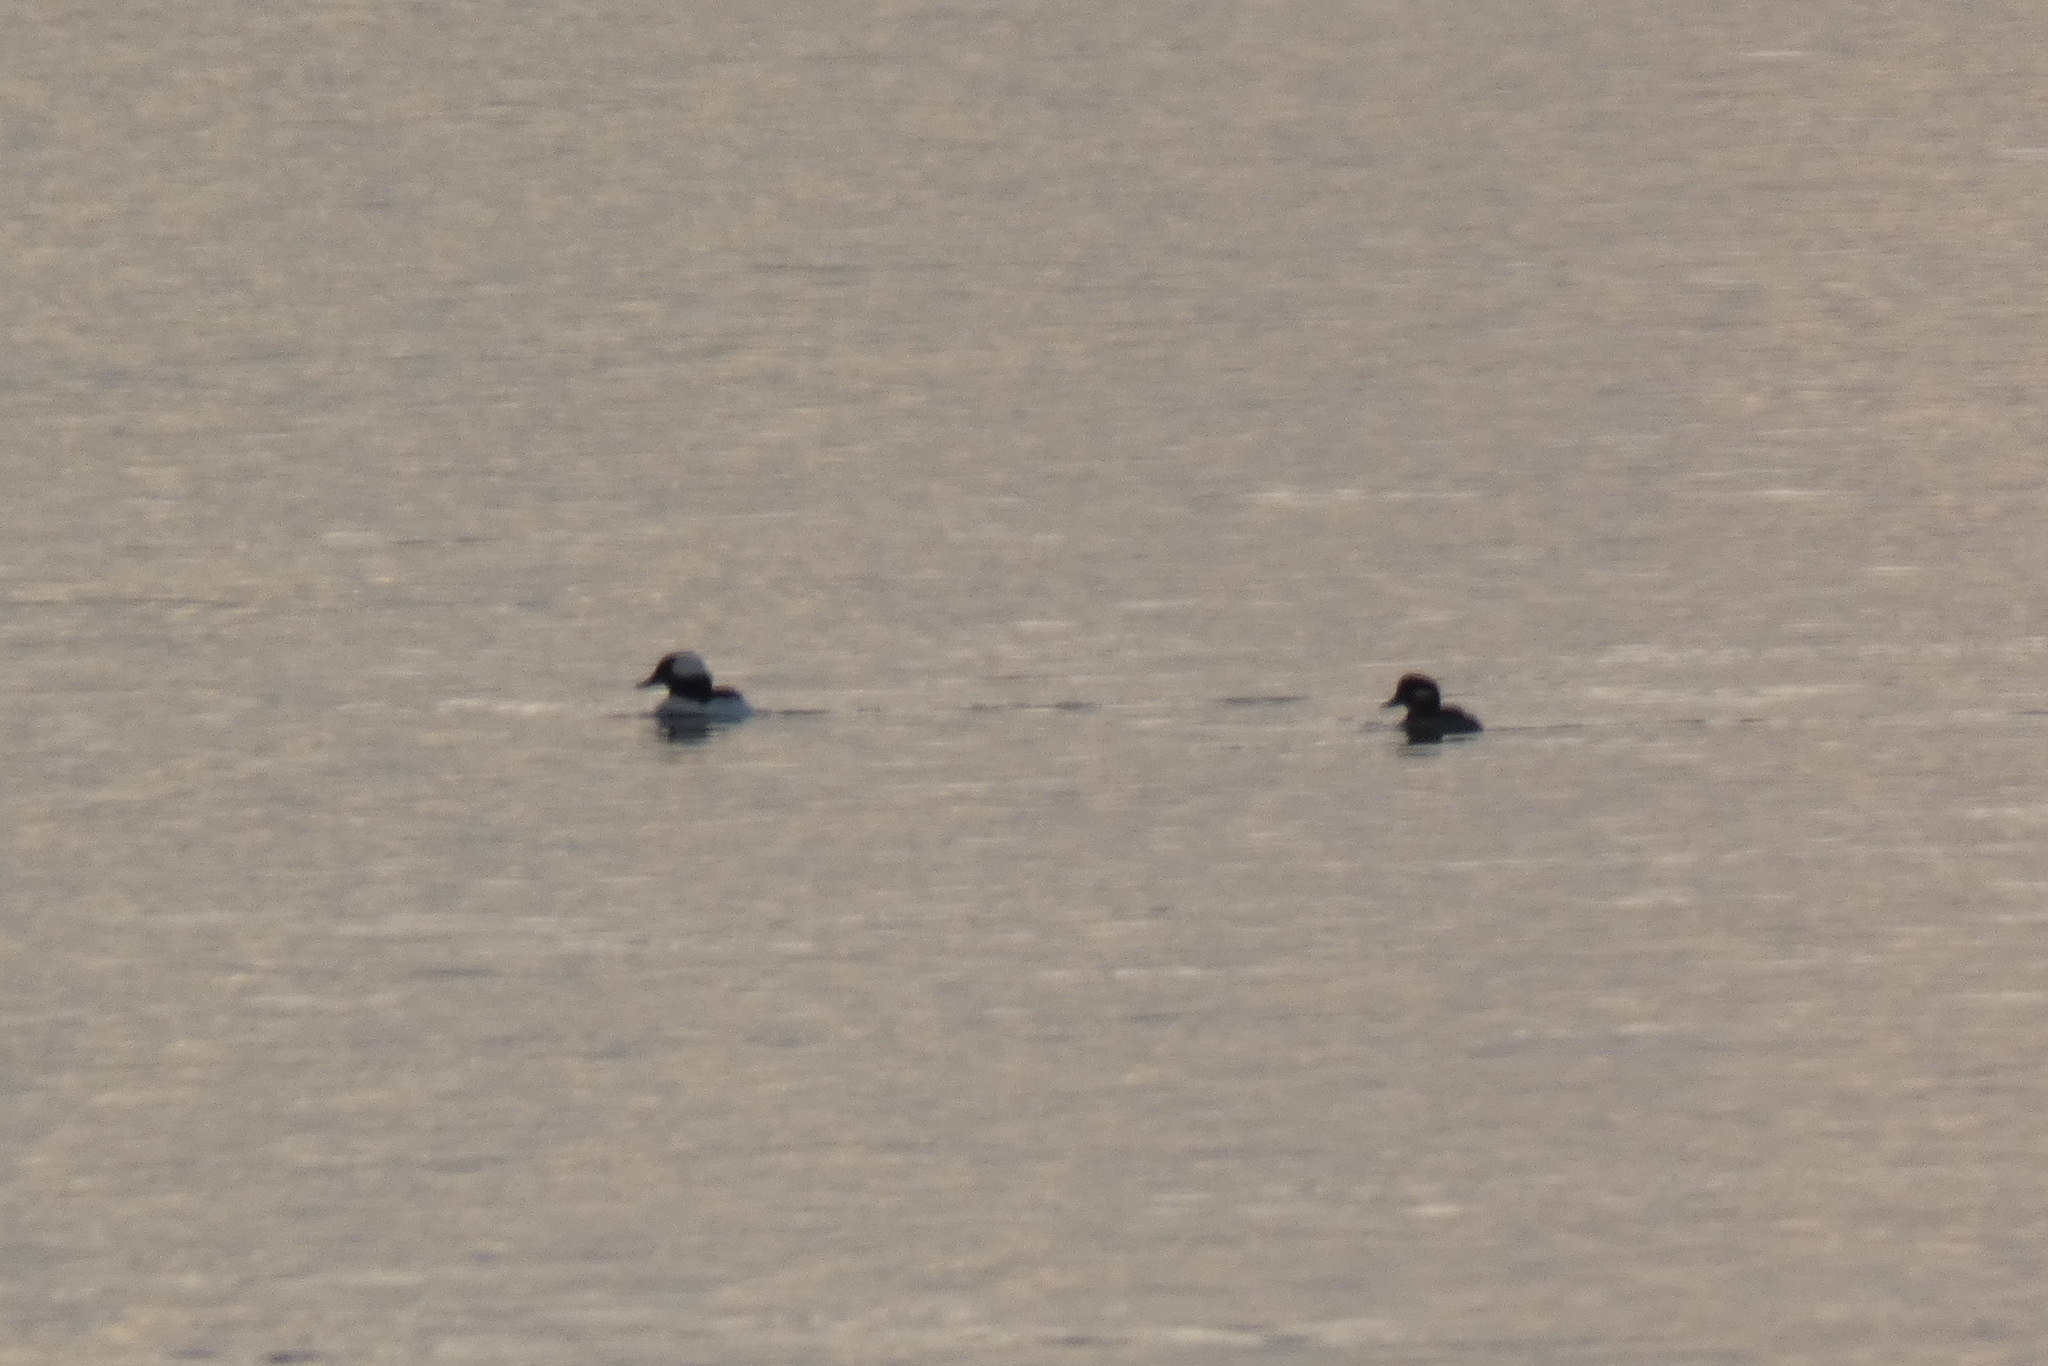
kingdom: Animalia
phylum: Chordata
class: Aves
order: Anseriformes
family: Anatidae
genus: Bucephala
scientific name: Bucephala albeola
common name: Bufflehead
